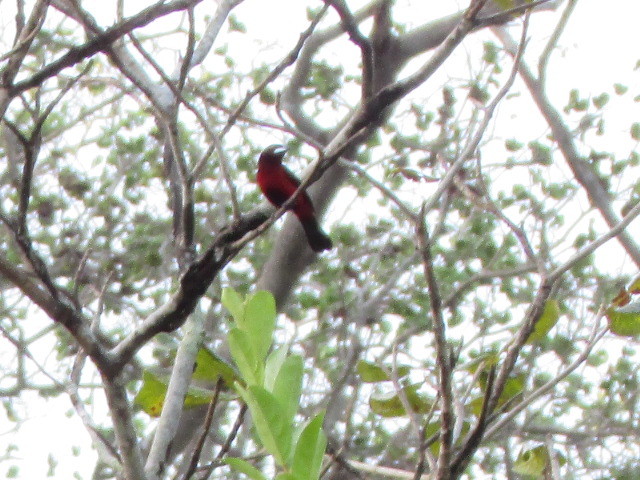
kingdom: Animalia
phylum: Chordata
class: Aves
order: Passeriformes
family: Thraupidae
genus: Ramphocelus
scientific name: Ramphocelus dimidiatus
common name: Crimson-backed tanager
